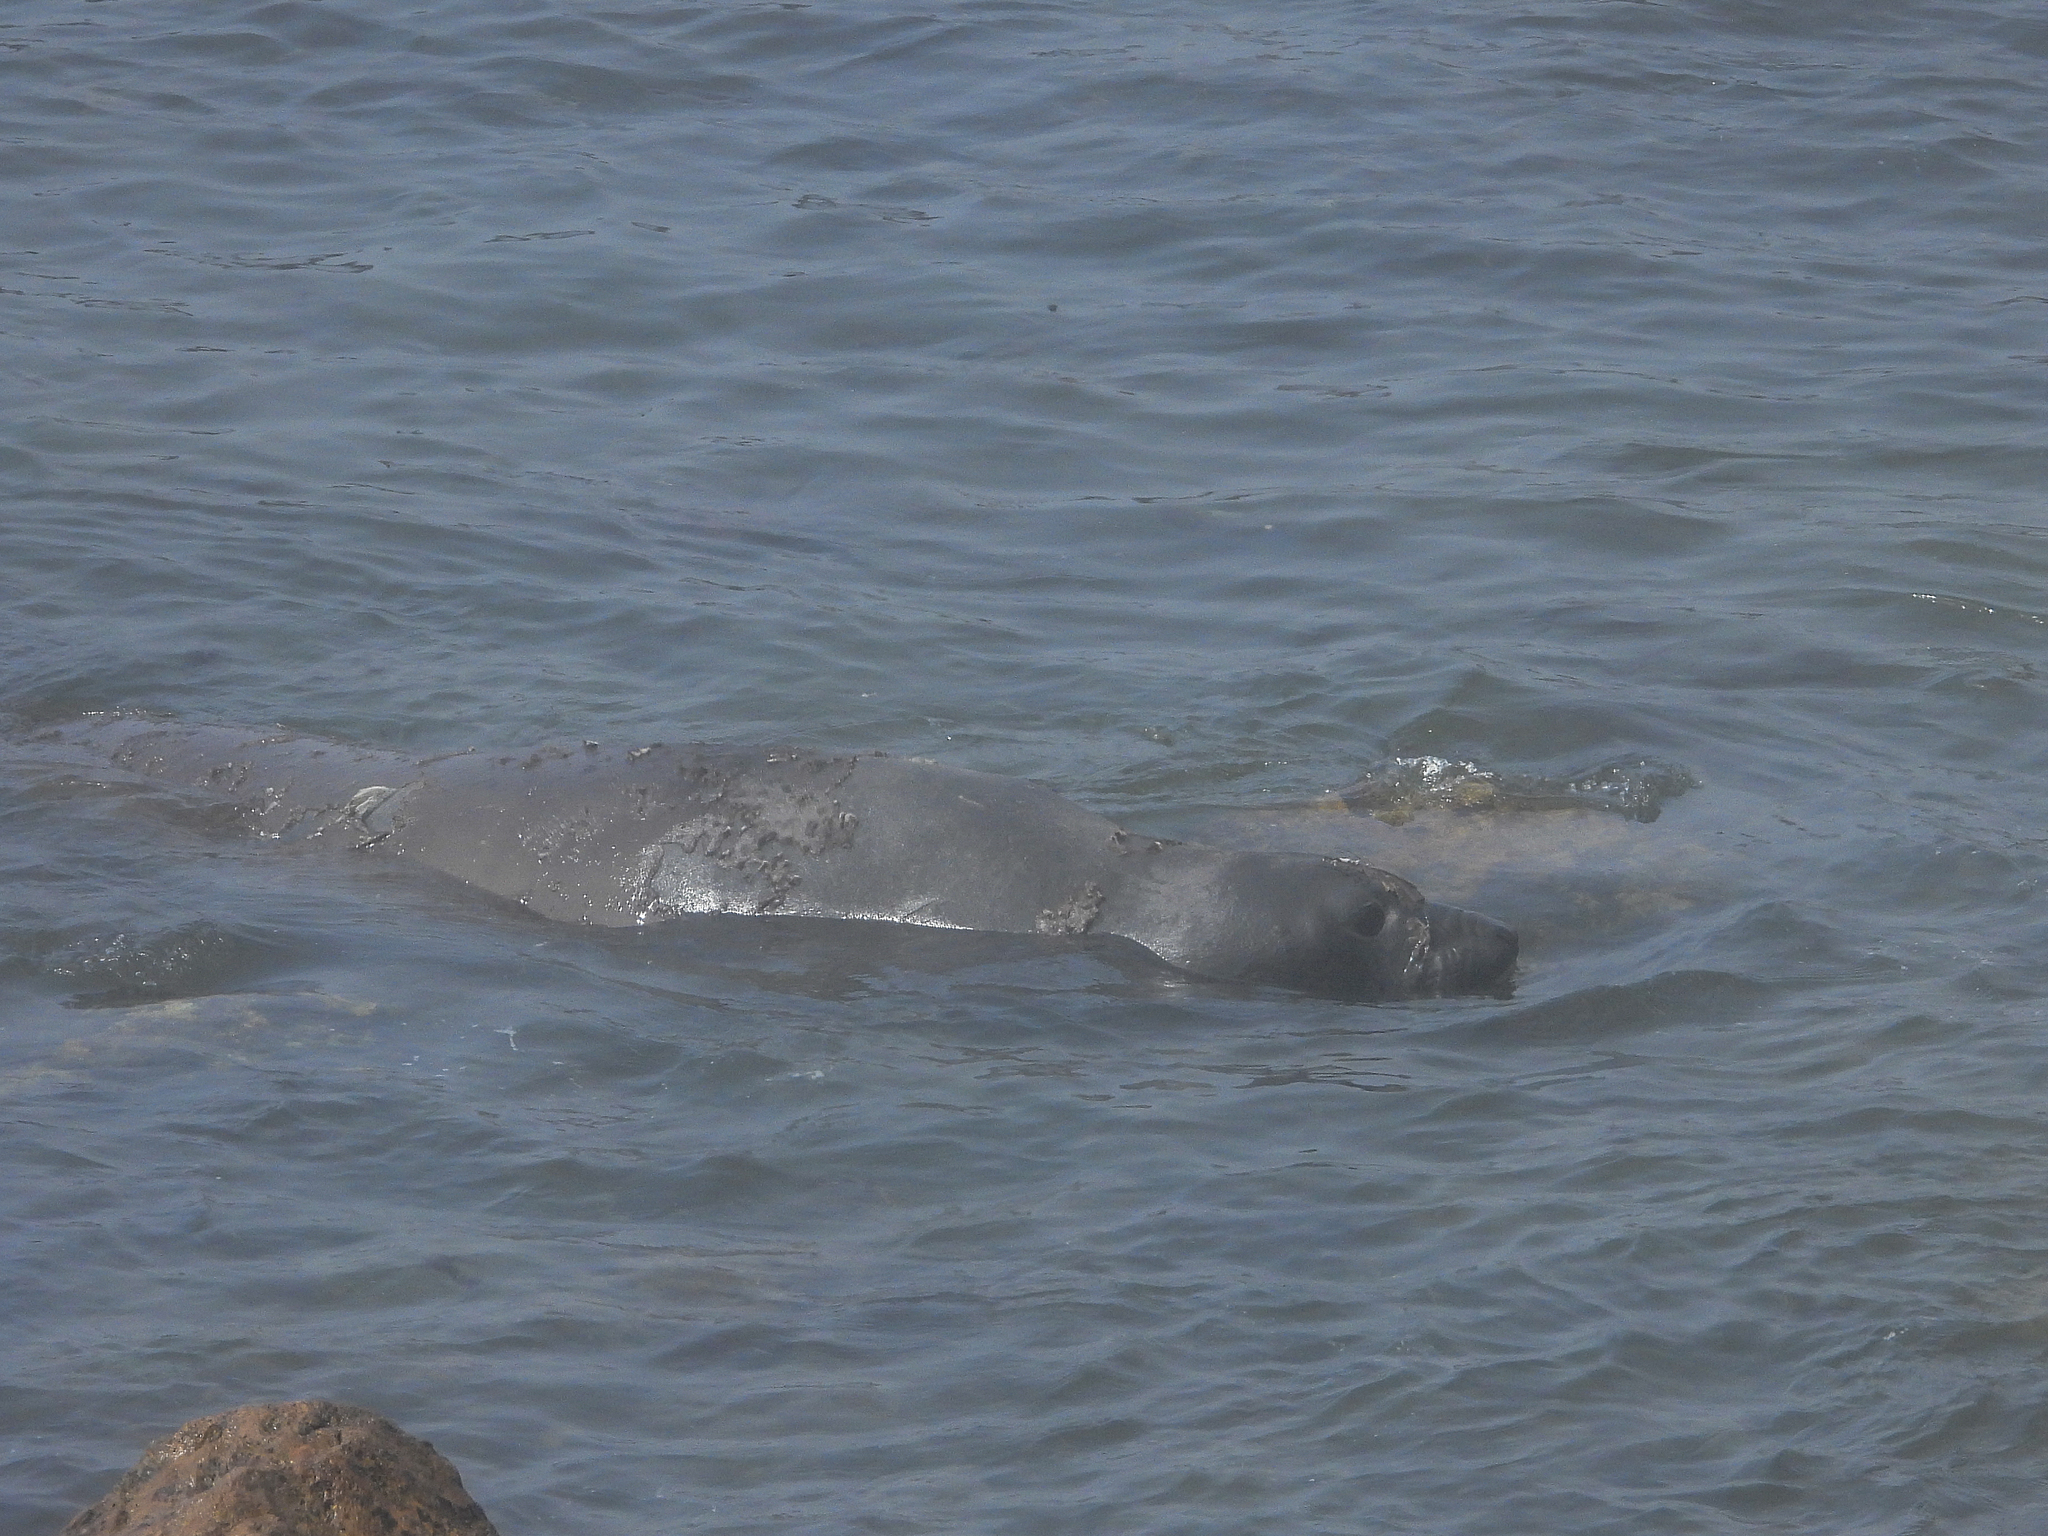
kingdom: Animalia
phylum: Chordata
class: Mammalia
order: Carnivora
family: Phocidae
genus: Mirounga
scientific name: Mirounga angustirostris
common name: Northern elephant seal
